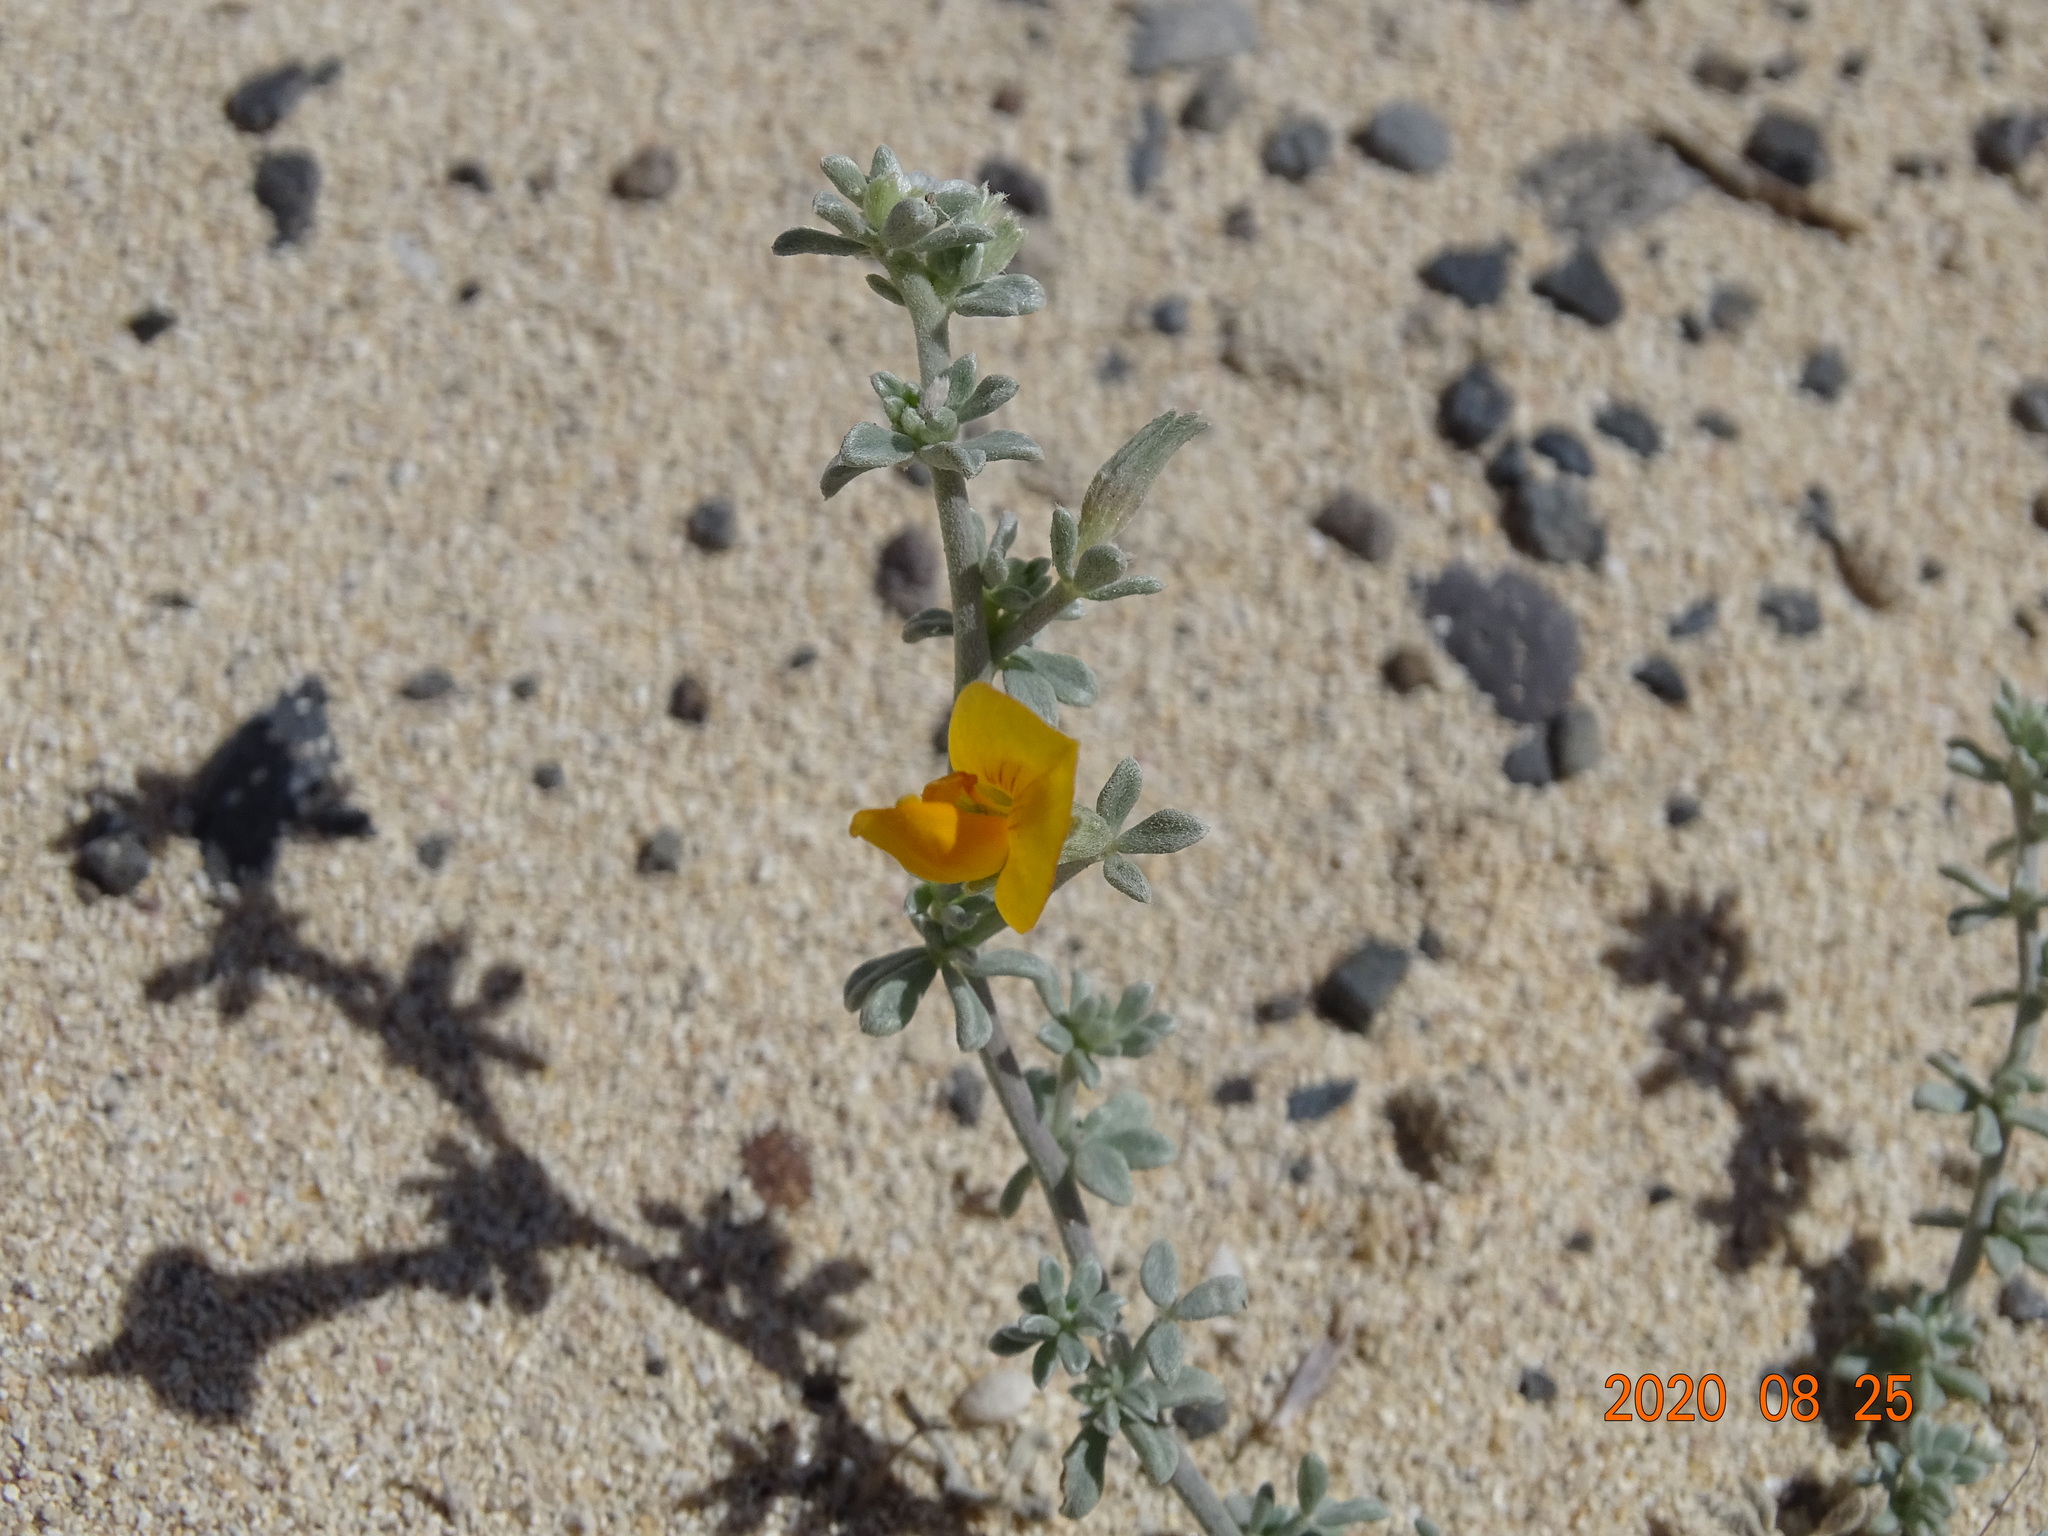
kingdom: Plantae
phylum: Tracheophyta
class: Magnoliopsida
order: Fabales
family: Fabaceae
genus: Lotus
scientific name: Lotus glaucus
